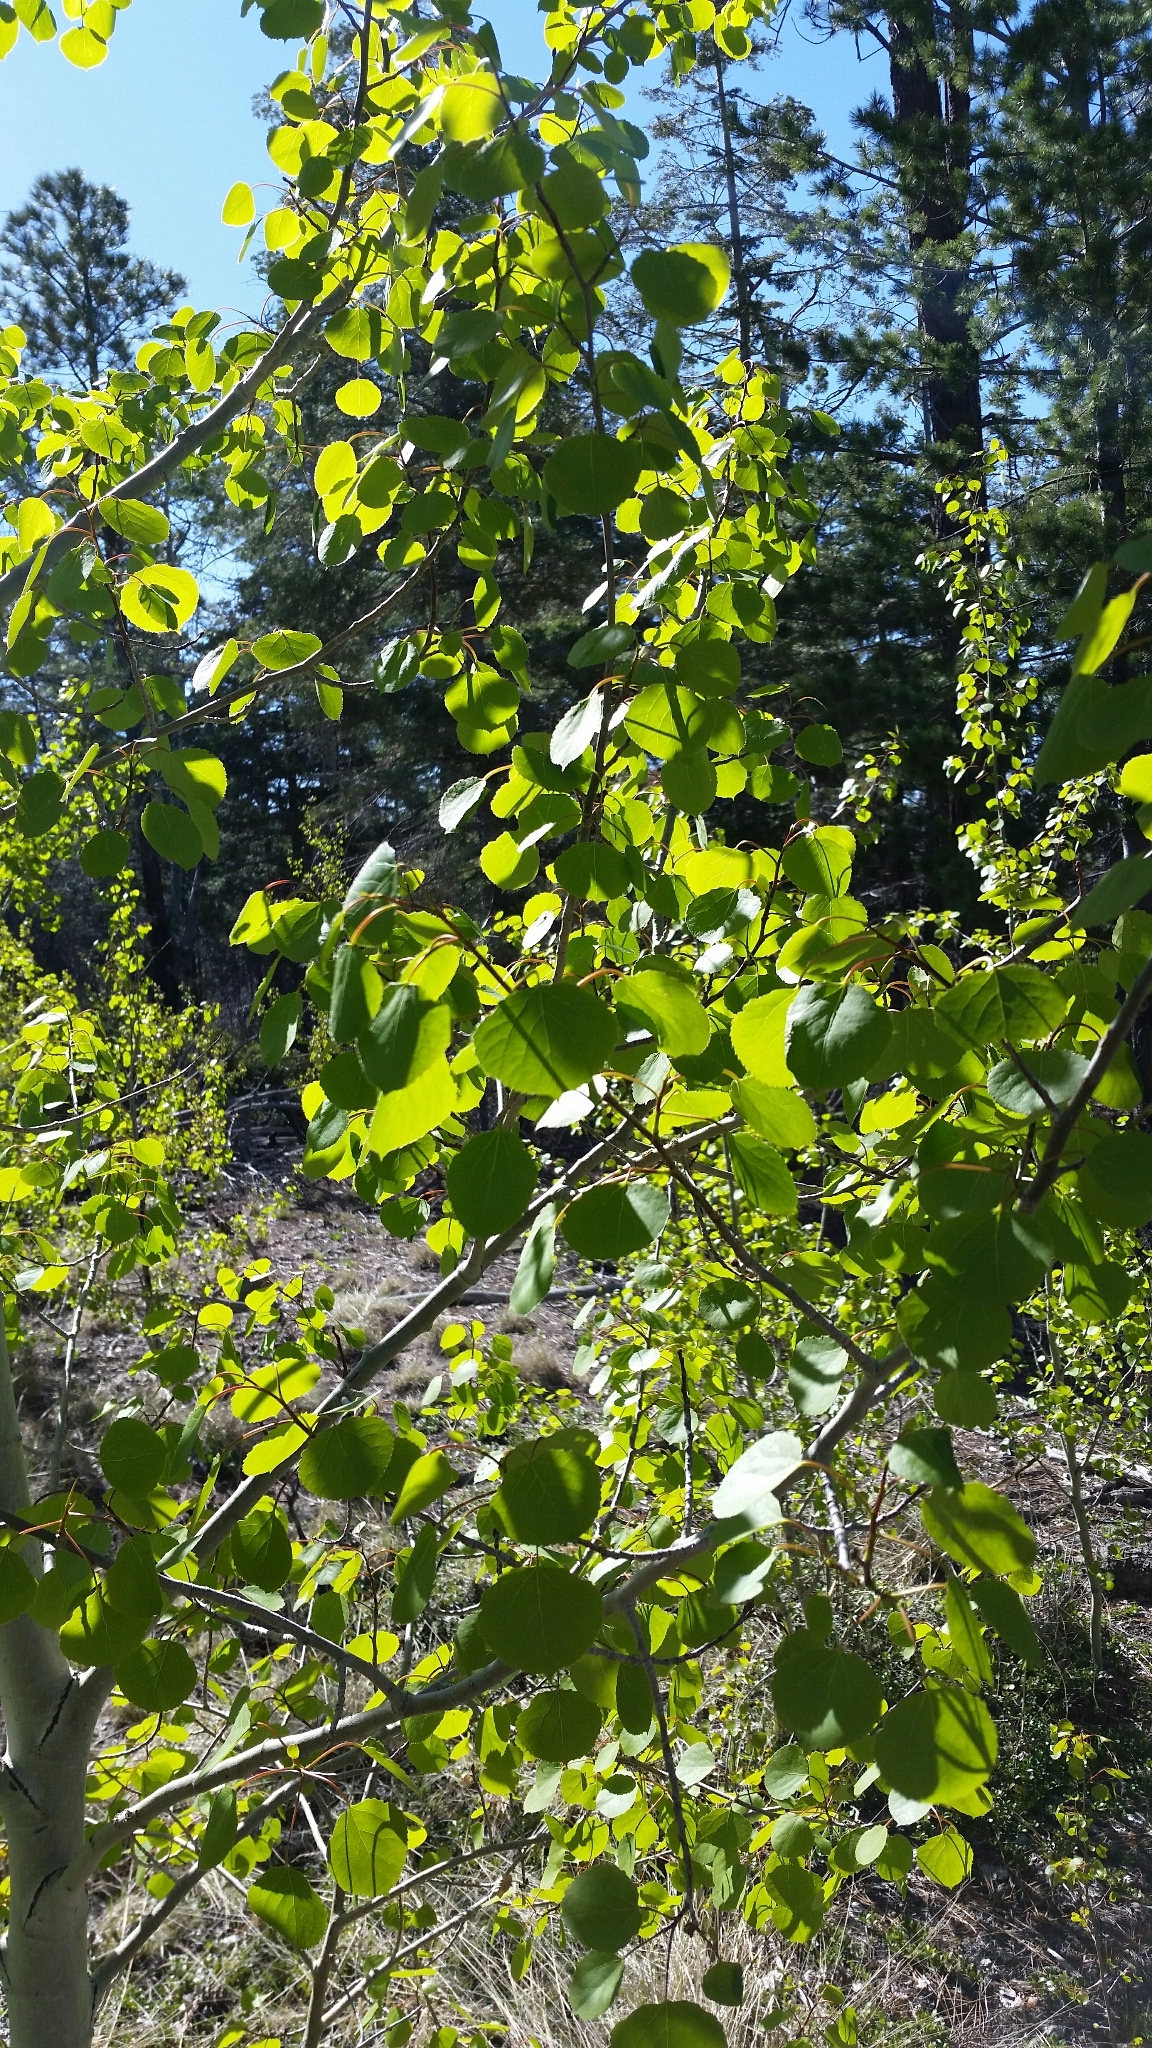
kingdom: Plantae
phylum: Tracheophyta
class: Magnoliopsida
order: Malpighiales
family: Salicaceae
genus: Populus
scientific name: Populus tremuloides
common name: Quaking aspen
